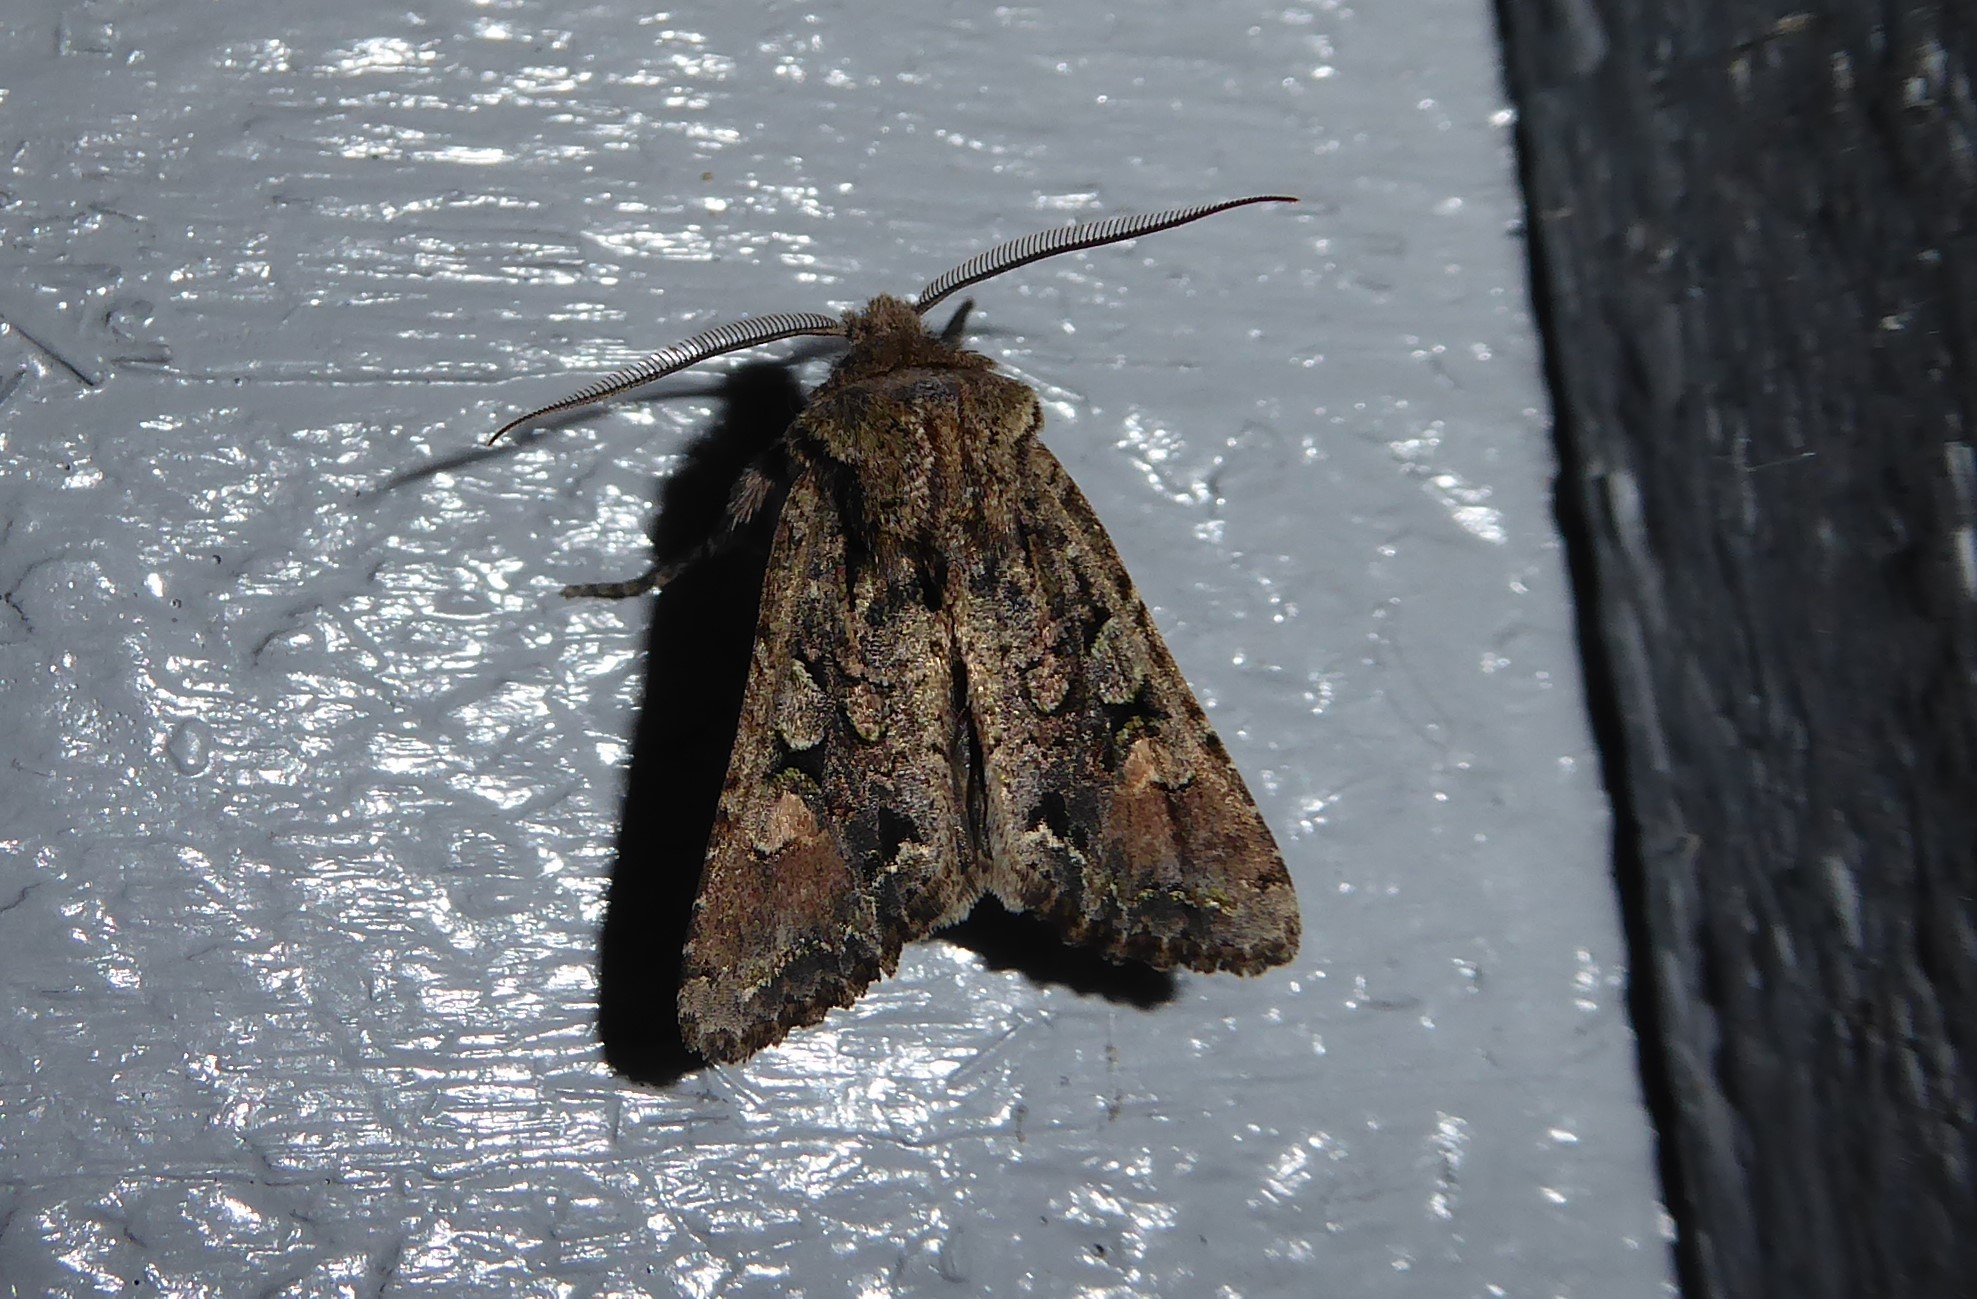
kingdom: Animalia
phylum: Arthropoda
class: Insecta
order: Lepidoptera
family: Noctuidae
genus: Ichneutica
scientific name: Ichneutica skelloni
